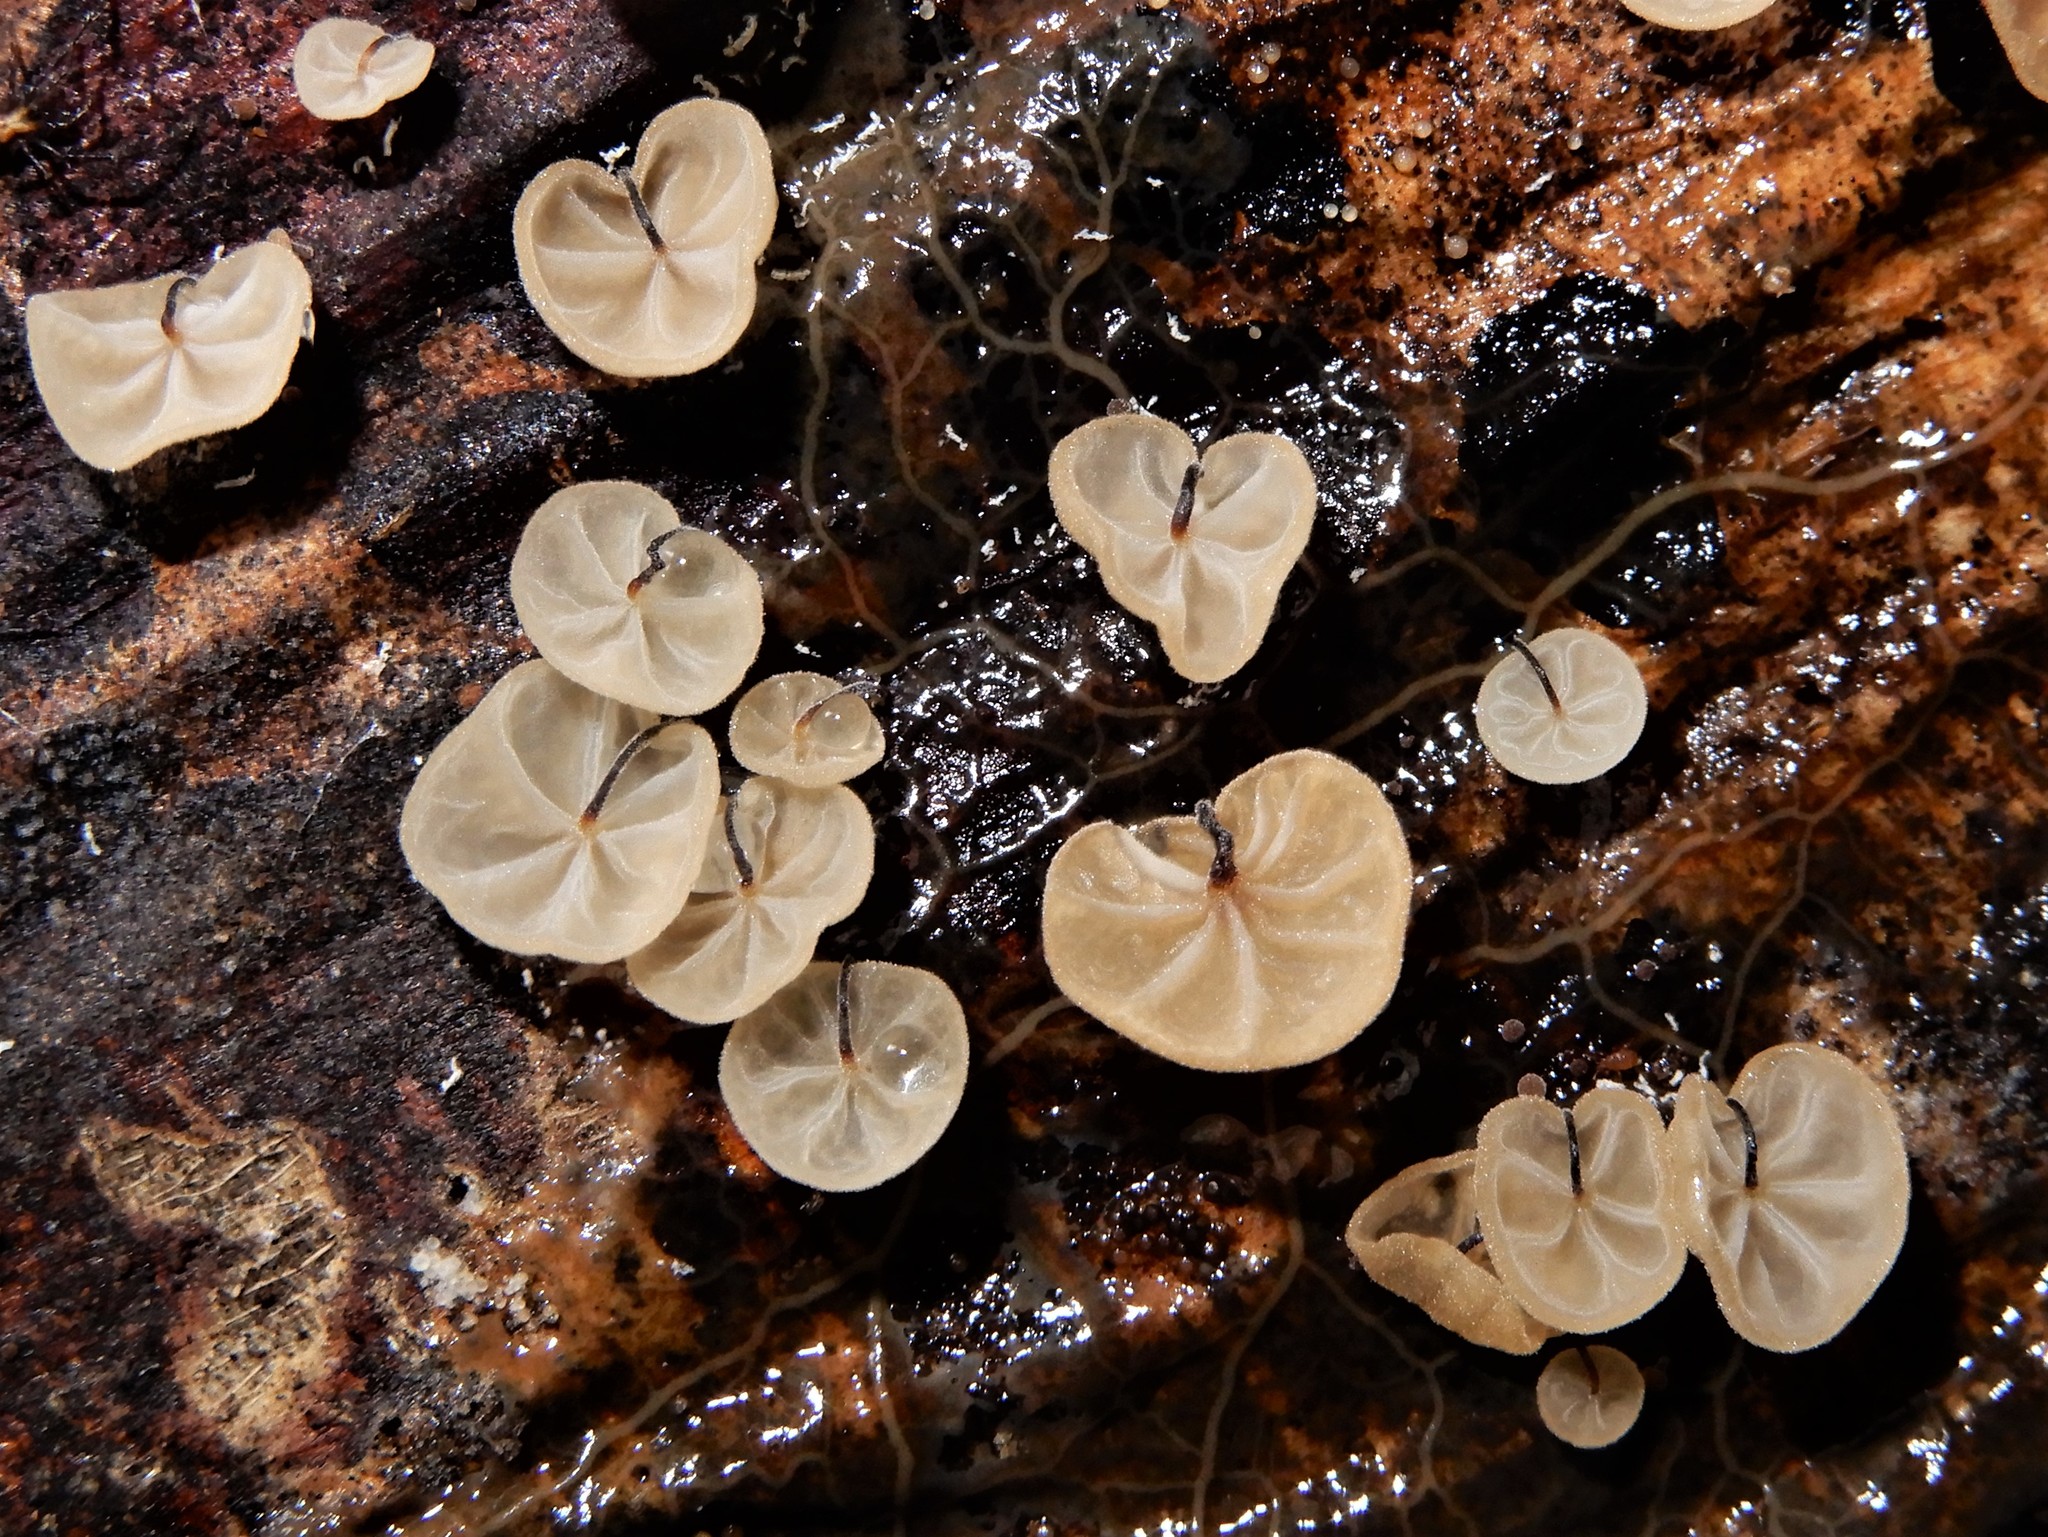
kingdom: Fungi
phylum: Basidiomycota
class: Agaricomycetes
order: Agaricales
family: Physalacriaceae
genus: Cryptomarasmius
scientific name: Cryptomarasmius rhopalostylidis
